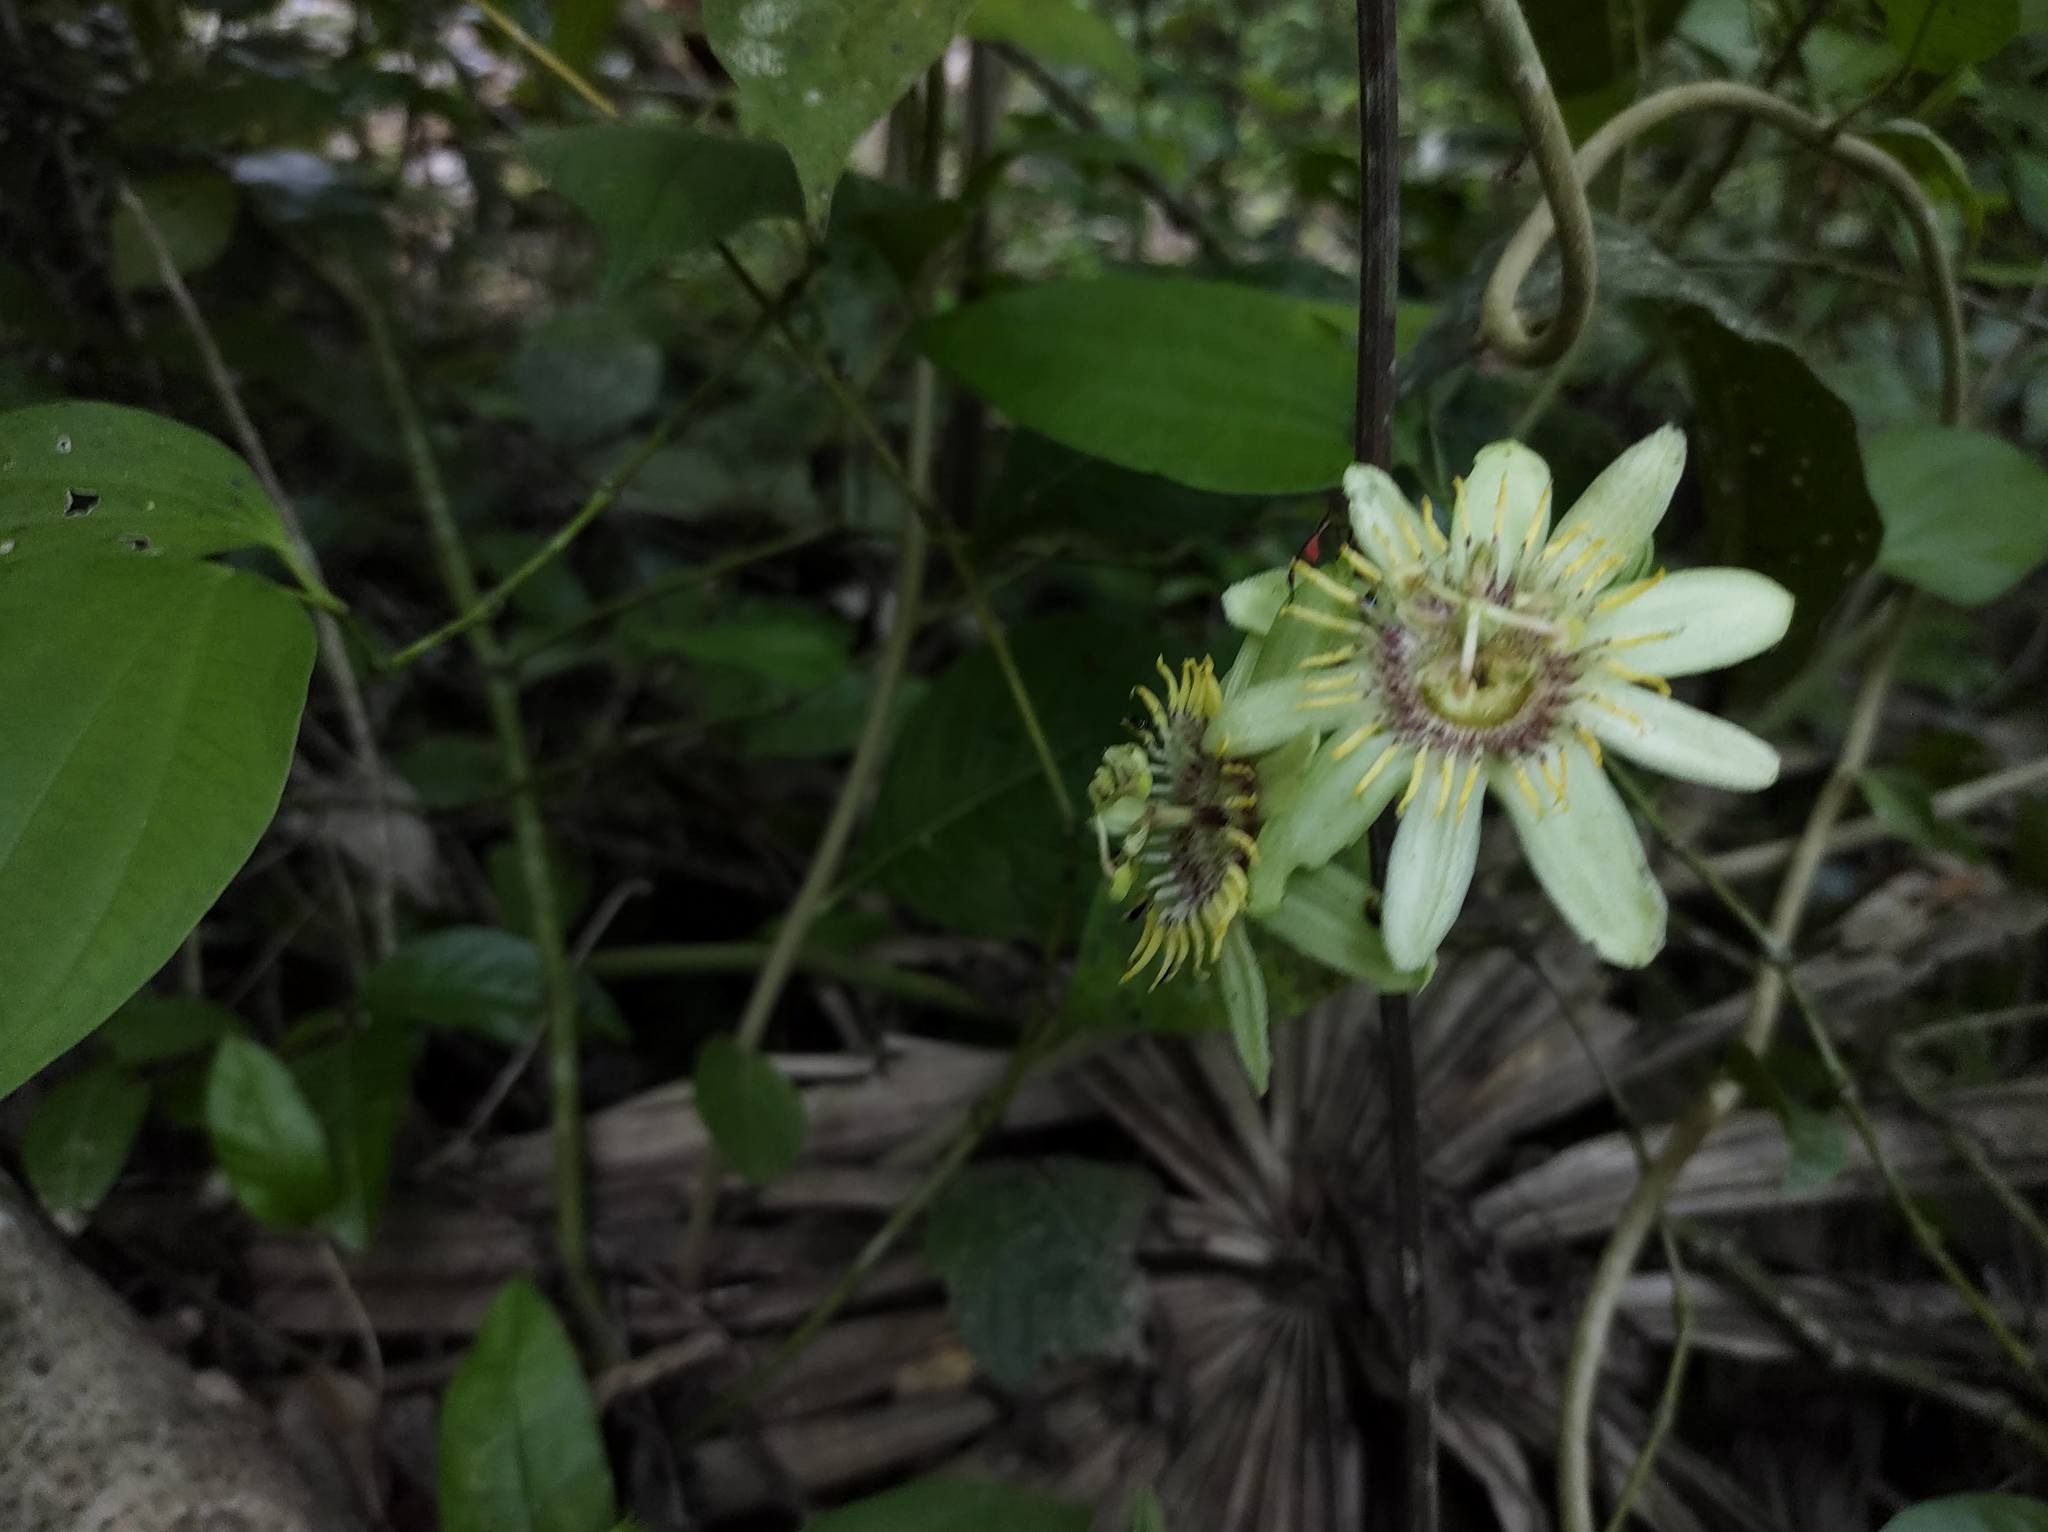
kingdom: Plantae
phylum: Tracheophyta
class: Magnoliopsida
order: Malpighiales
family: Passifloraceae
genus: Passiflora
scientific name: Passiflora rovirosae
